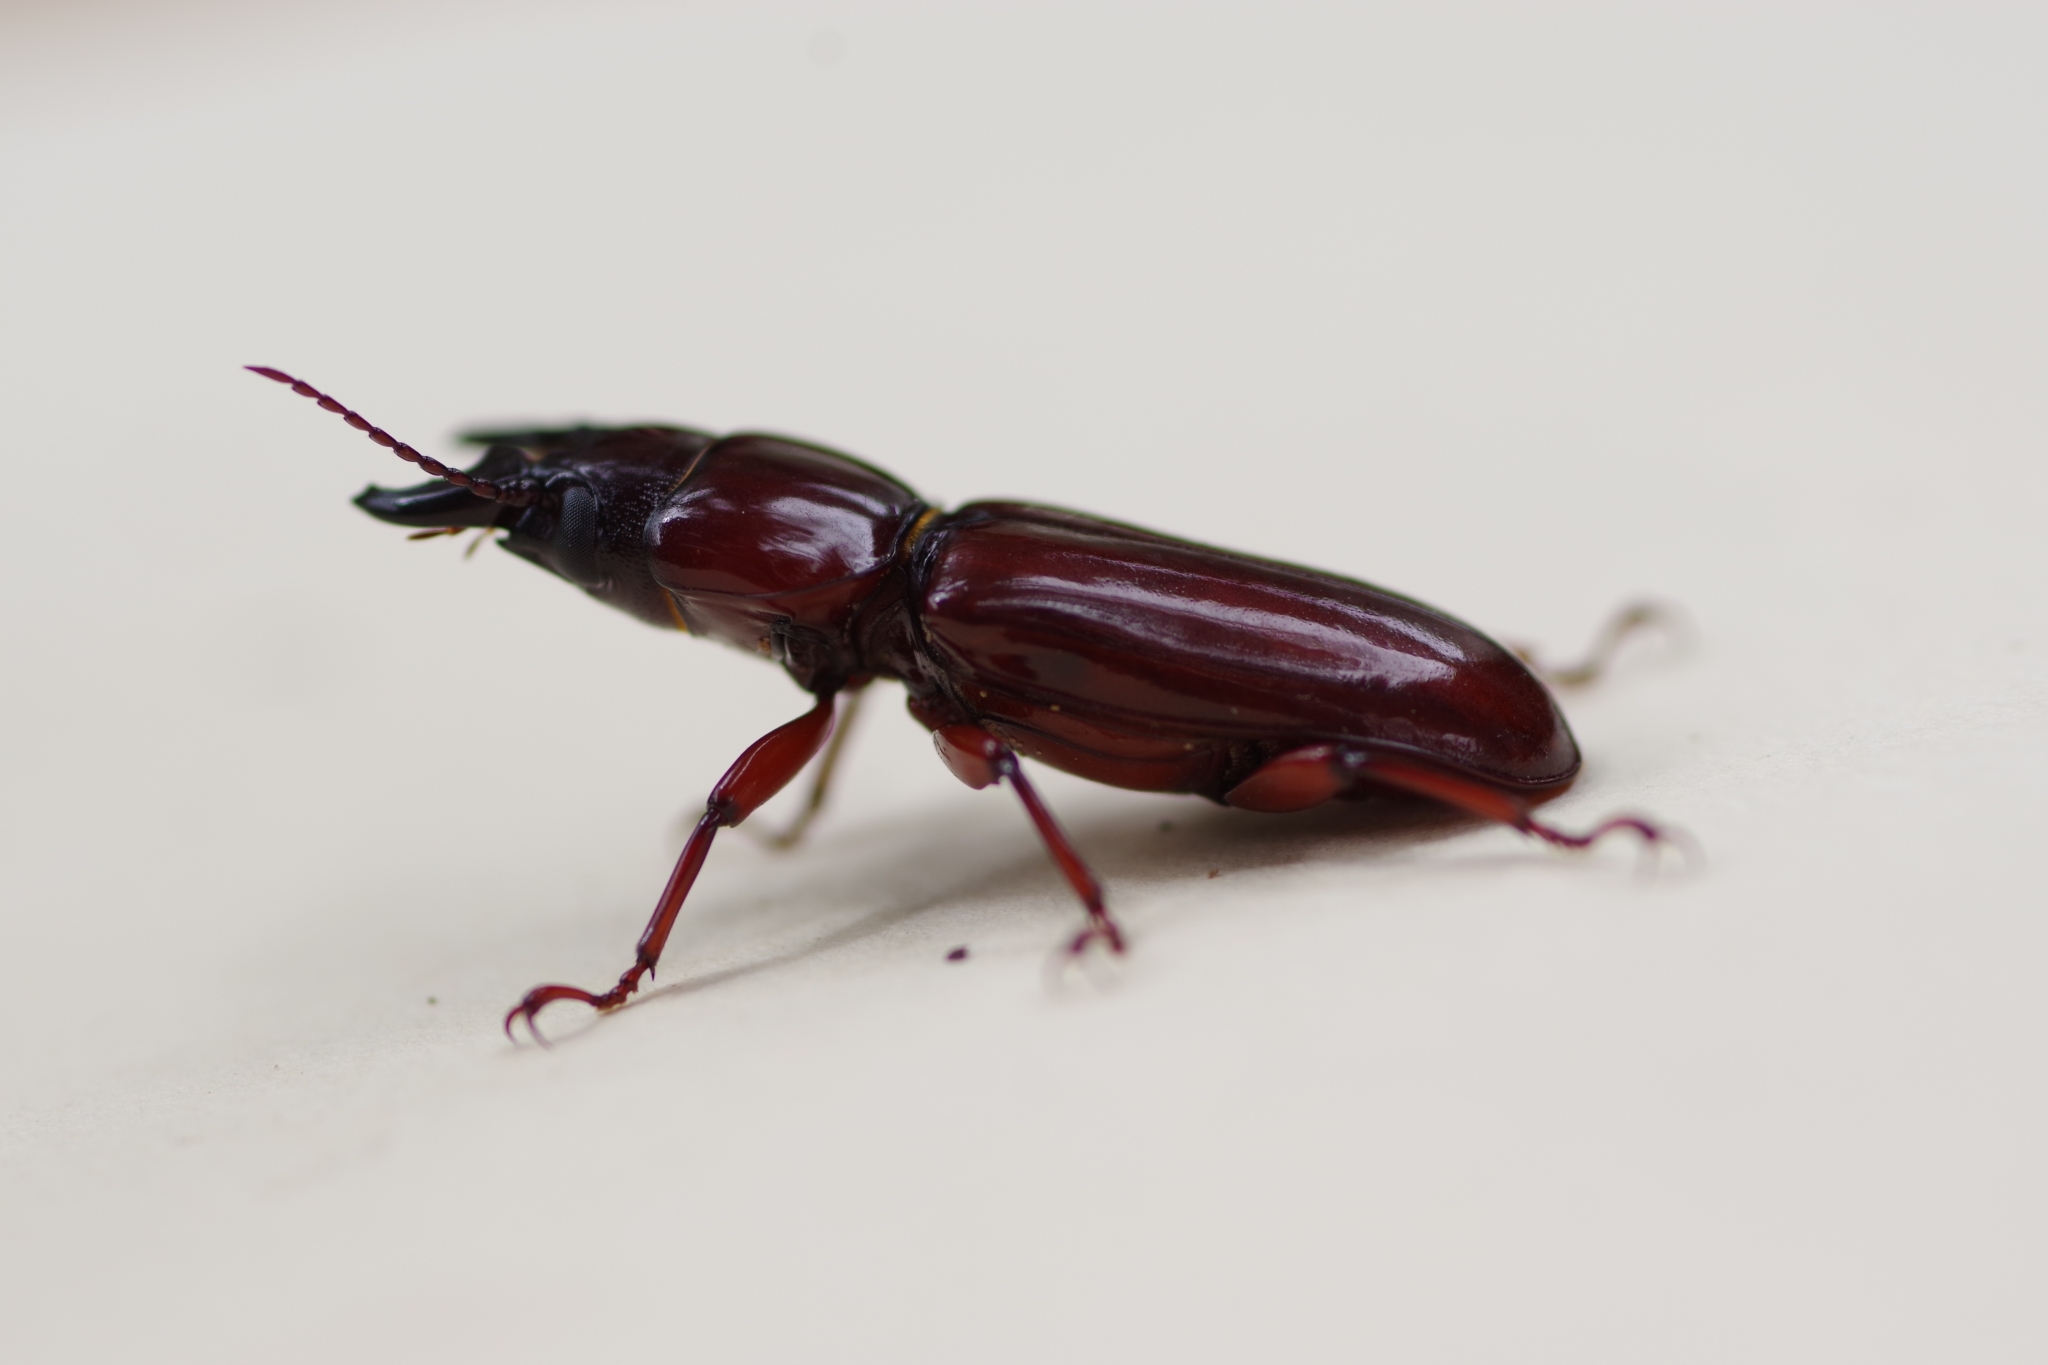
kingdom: Animalia
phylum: Arthropoda
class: Insecta
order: Coleoptera
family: Cerambycidae
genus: Parandra
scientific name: Parandra glabra
